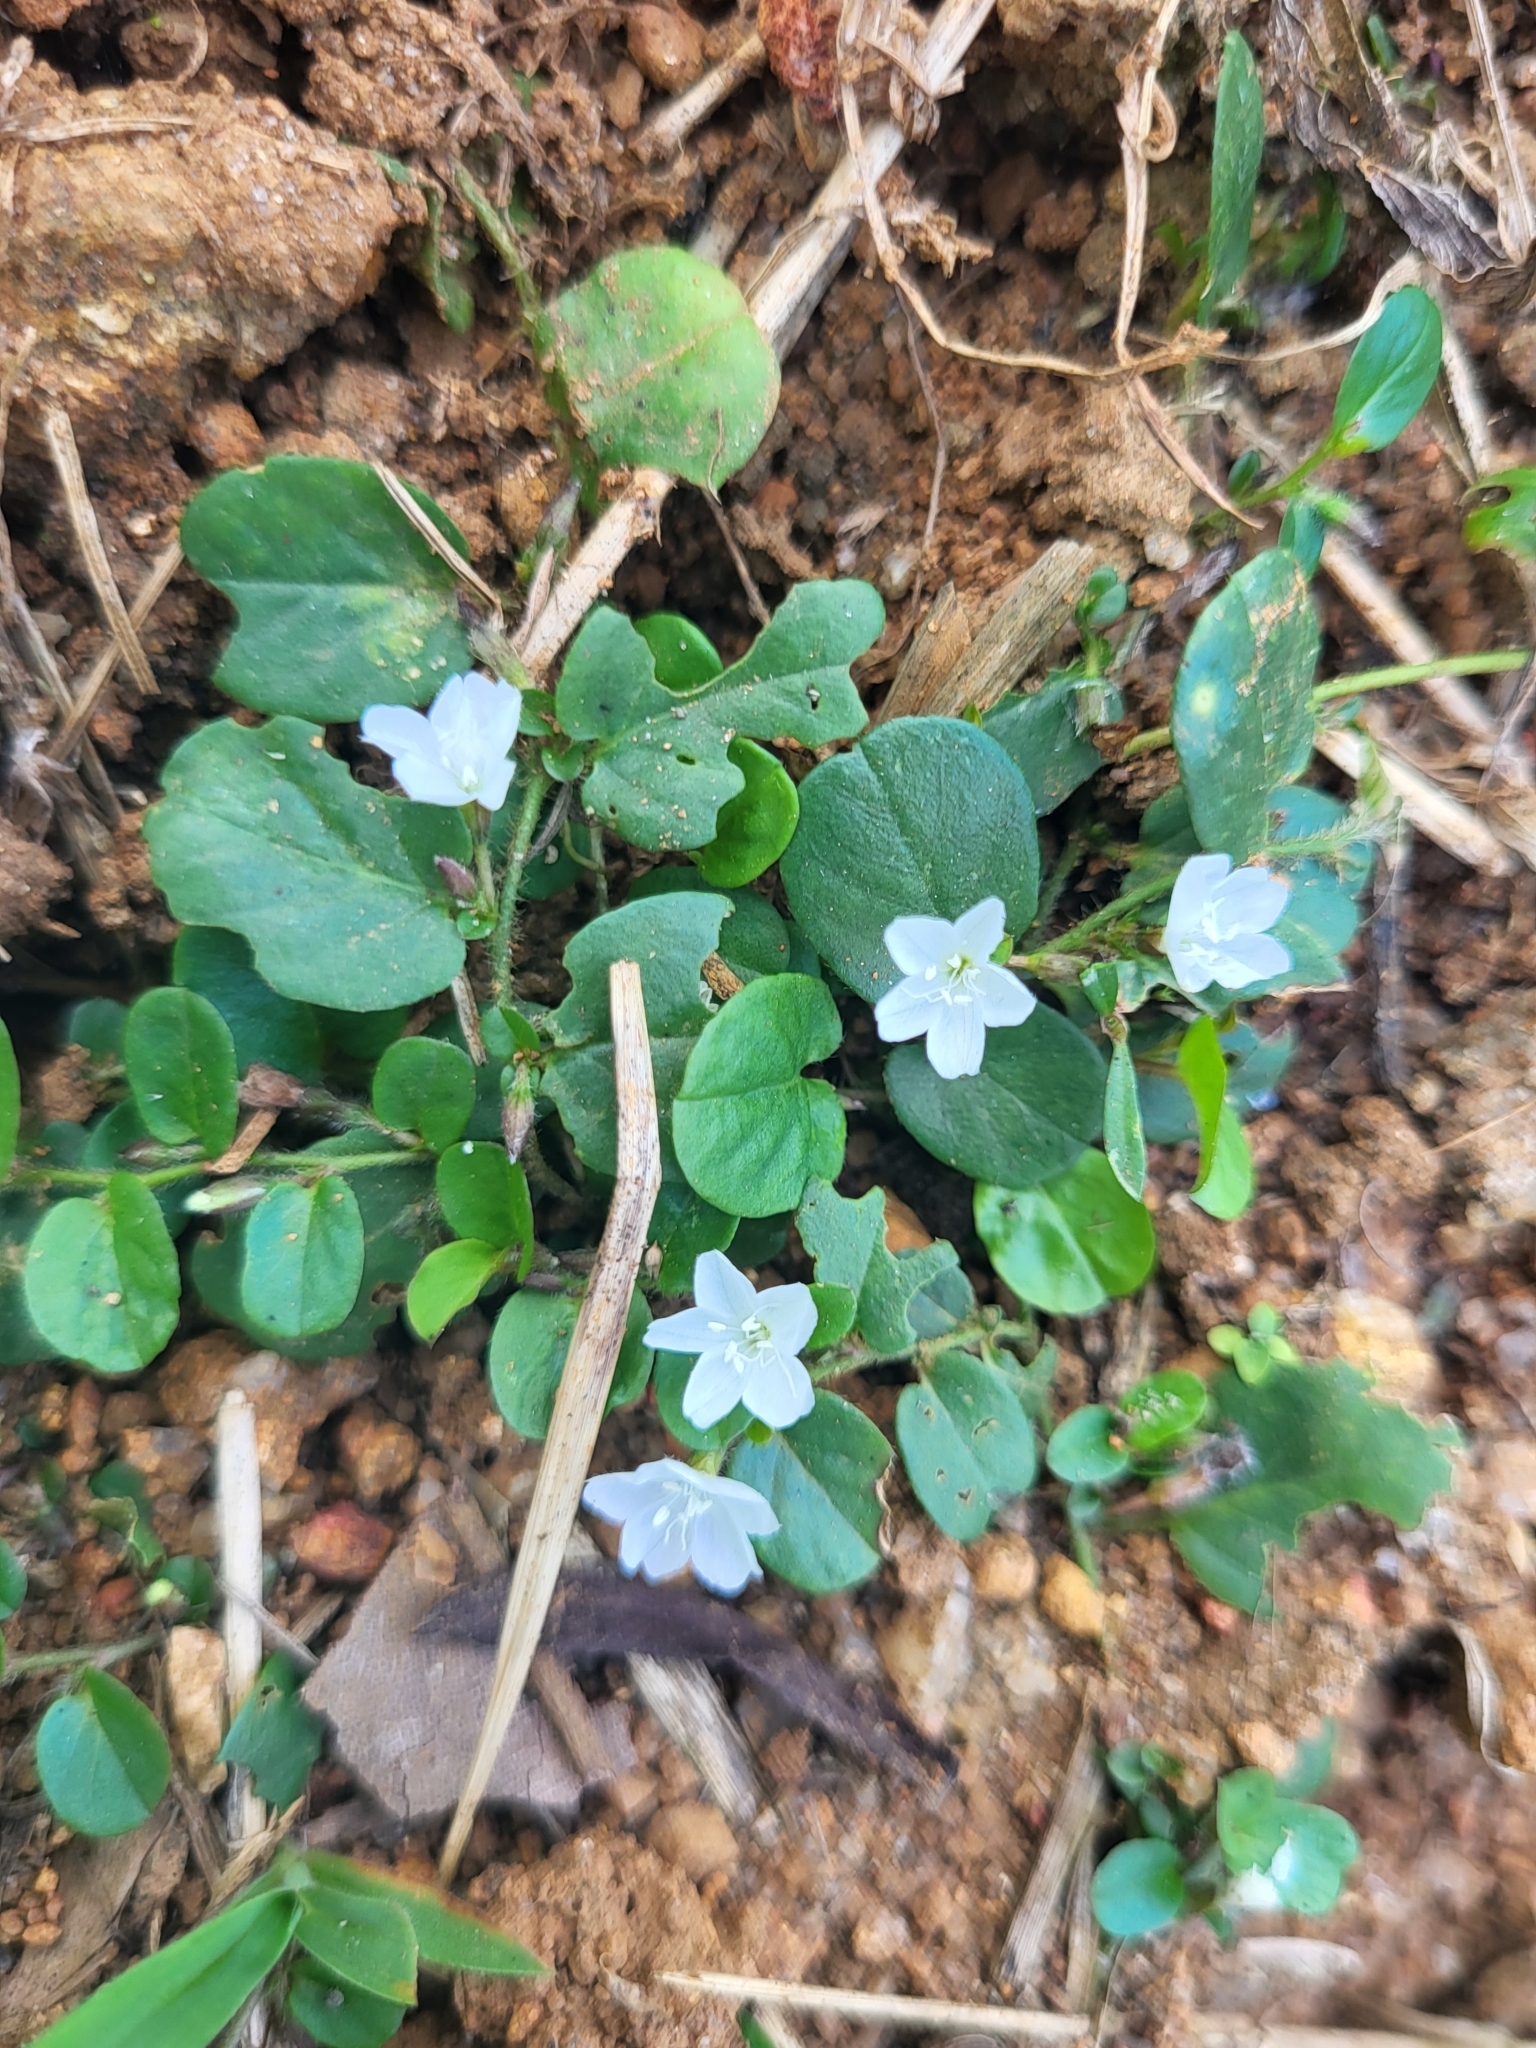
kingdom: Plantae
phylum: Tracheophyta
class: Magnoliopsida
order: Solanales
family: Convolvulaceae
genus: Evolvulus
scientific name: Evolvulus nummularius
